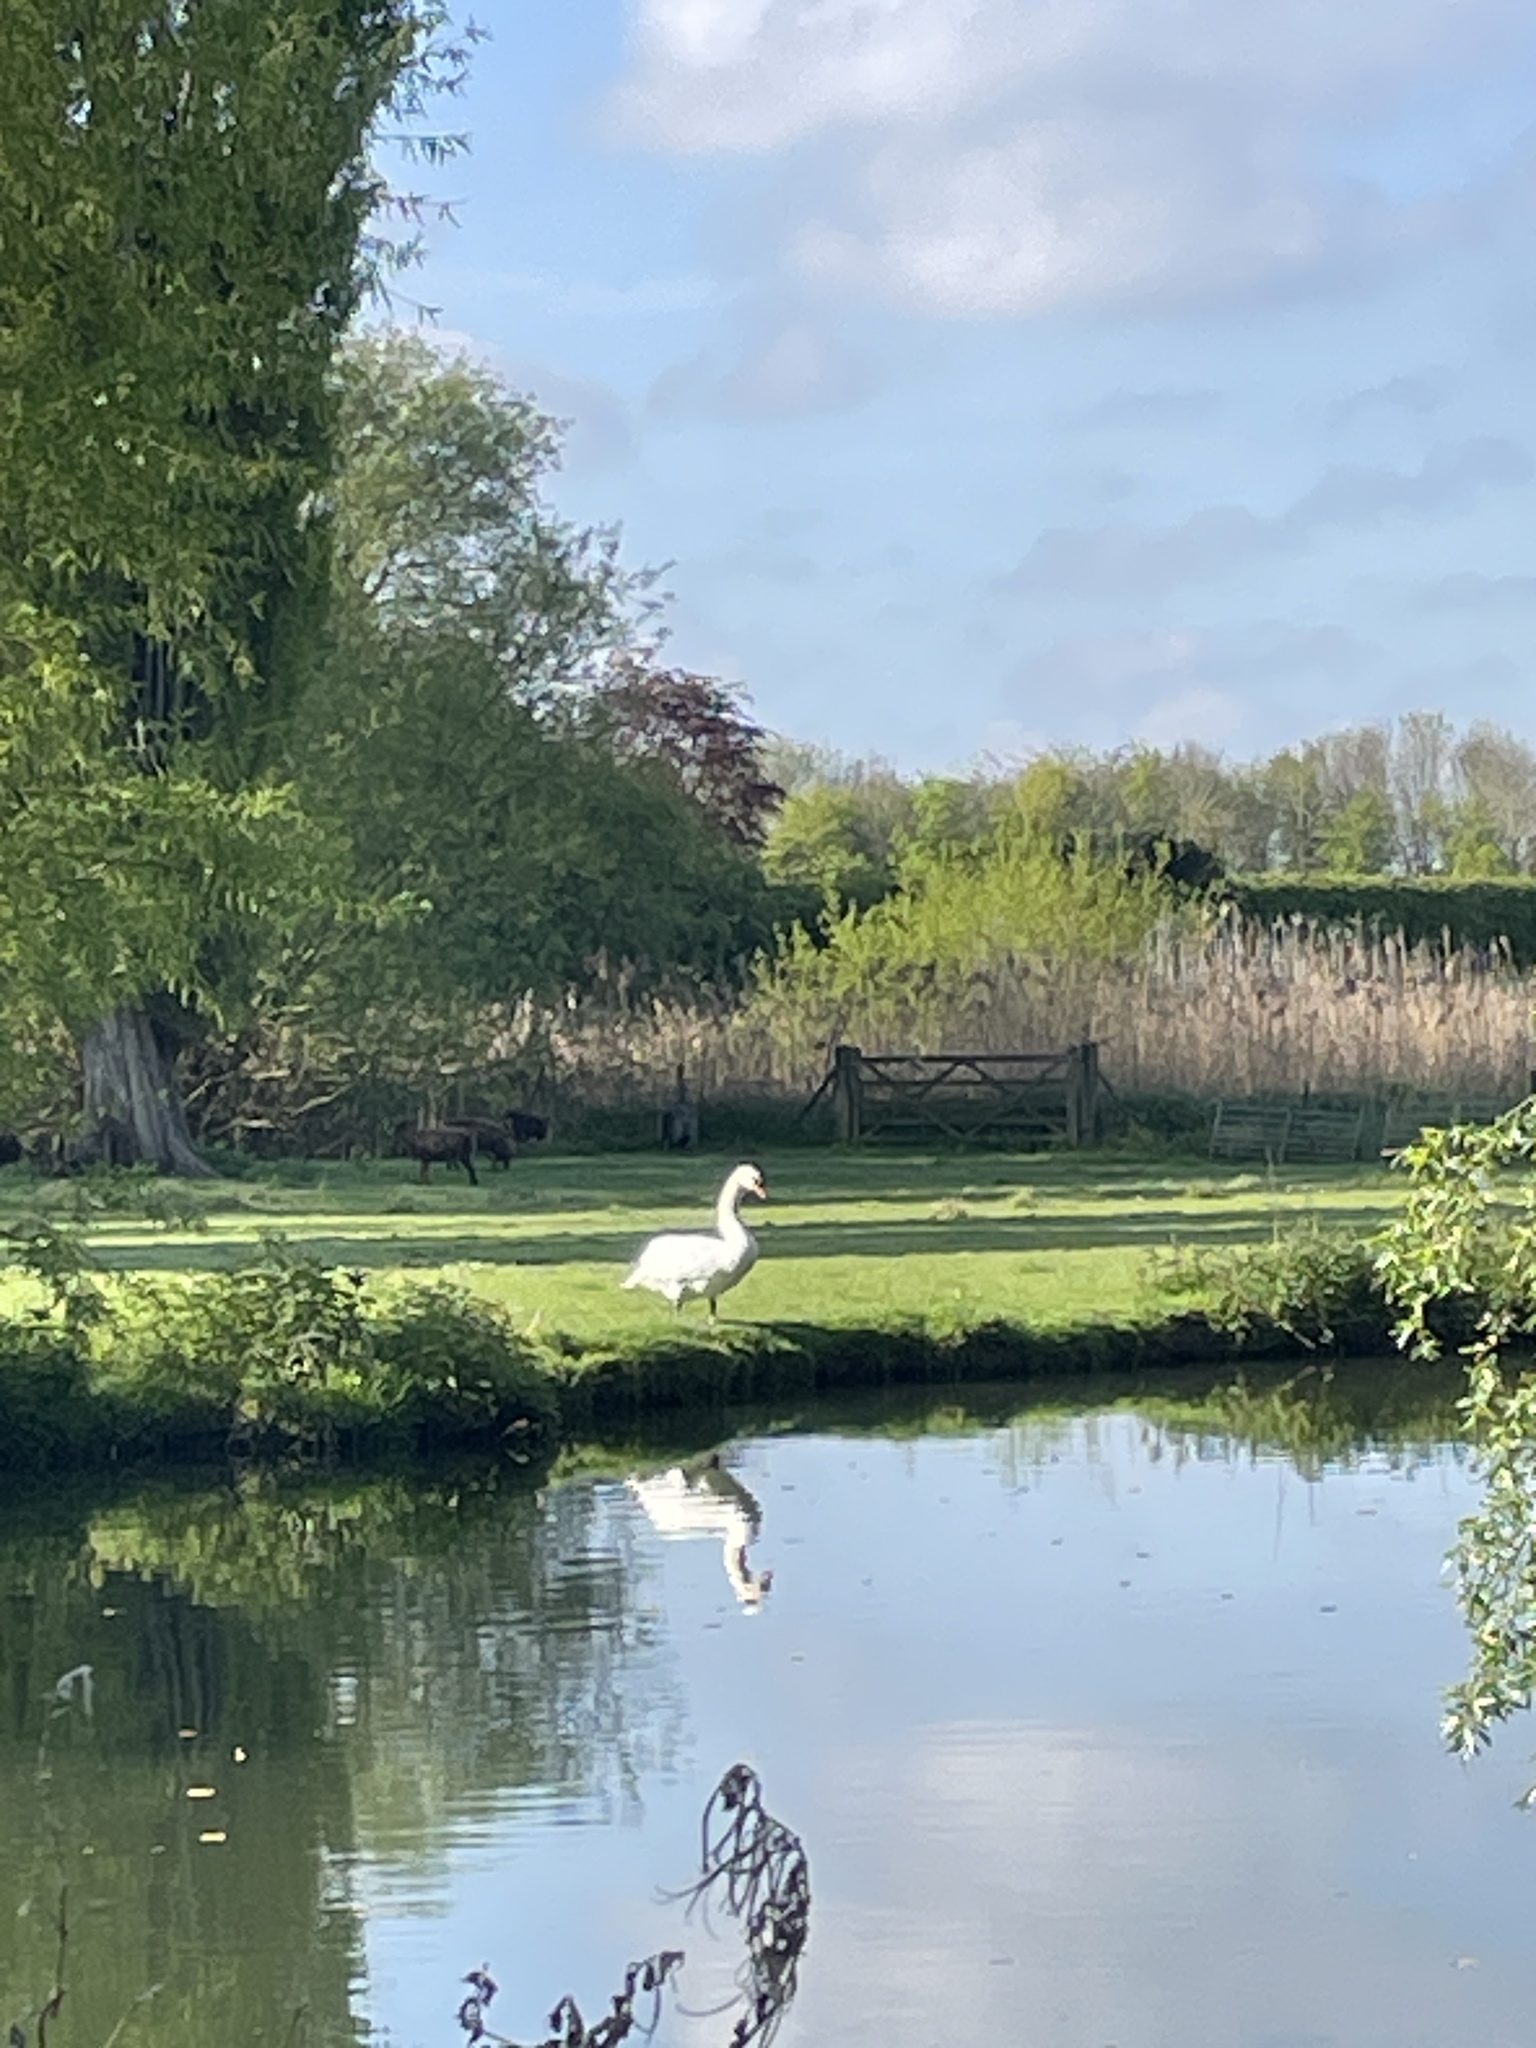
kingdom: Animalia
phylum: Chordata
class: Aves
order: Anseriformes
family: Anatidae
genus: Cygnus
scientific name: Cygnus olor
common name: Mute swan
